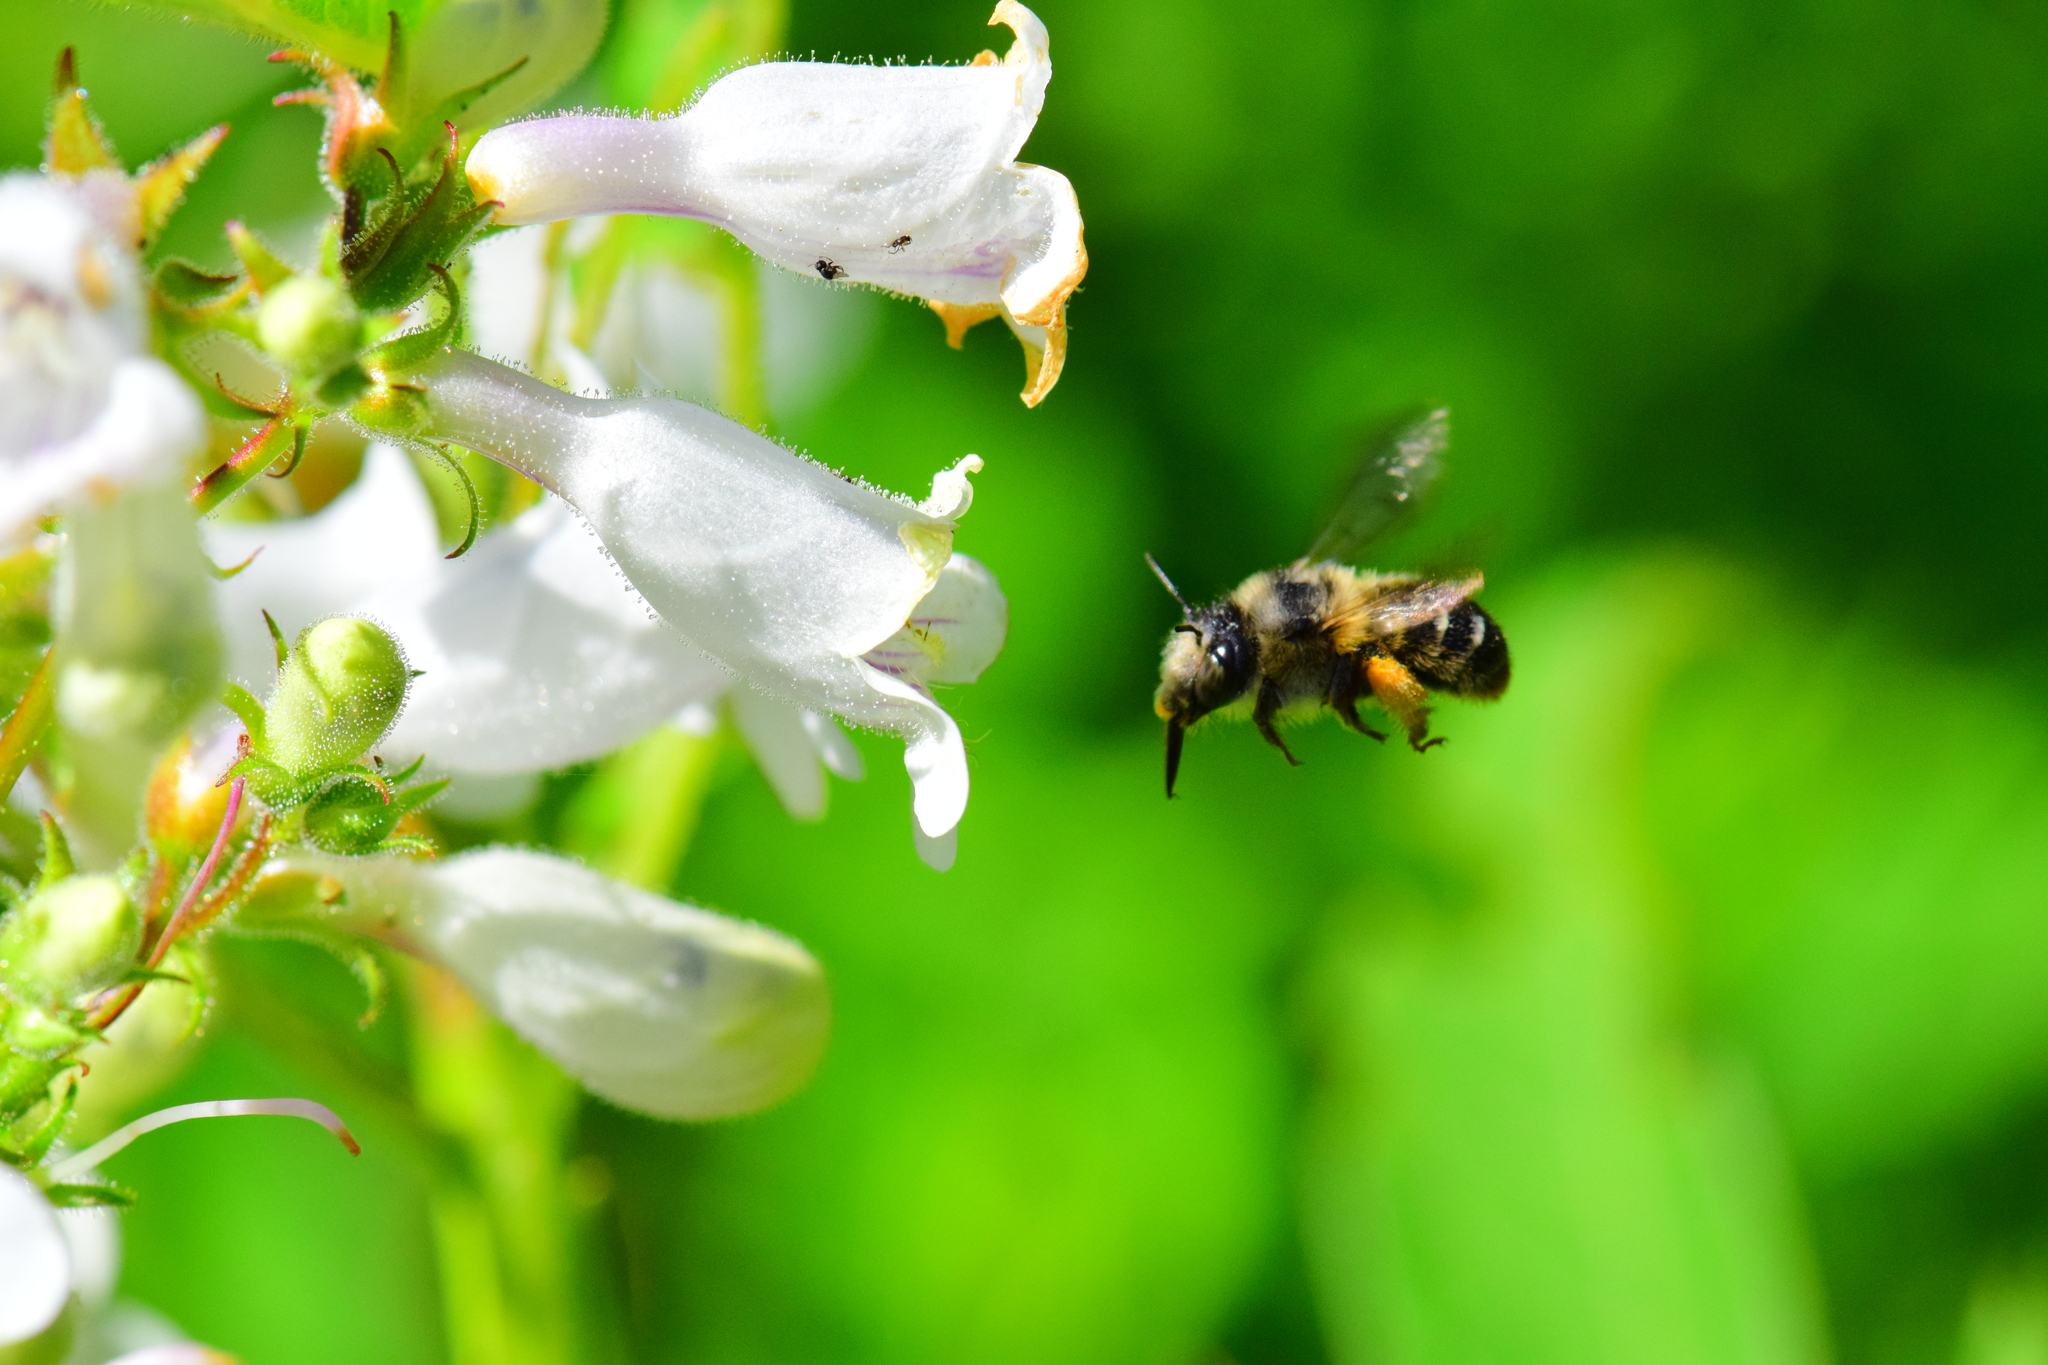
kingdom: Animalia
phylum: Arthropoda
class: Insecta
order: Hymenoptera
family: Apidae
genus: Anthophora
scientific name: Anthophora terminalis
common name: Orange-tipped wood-digger bee
